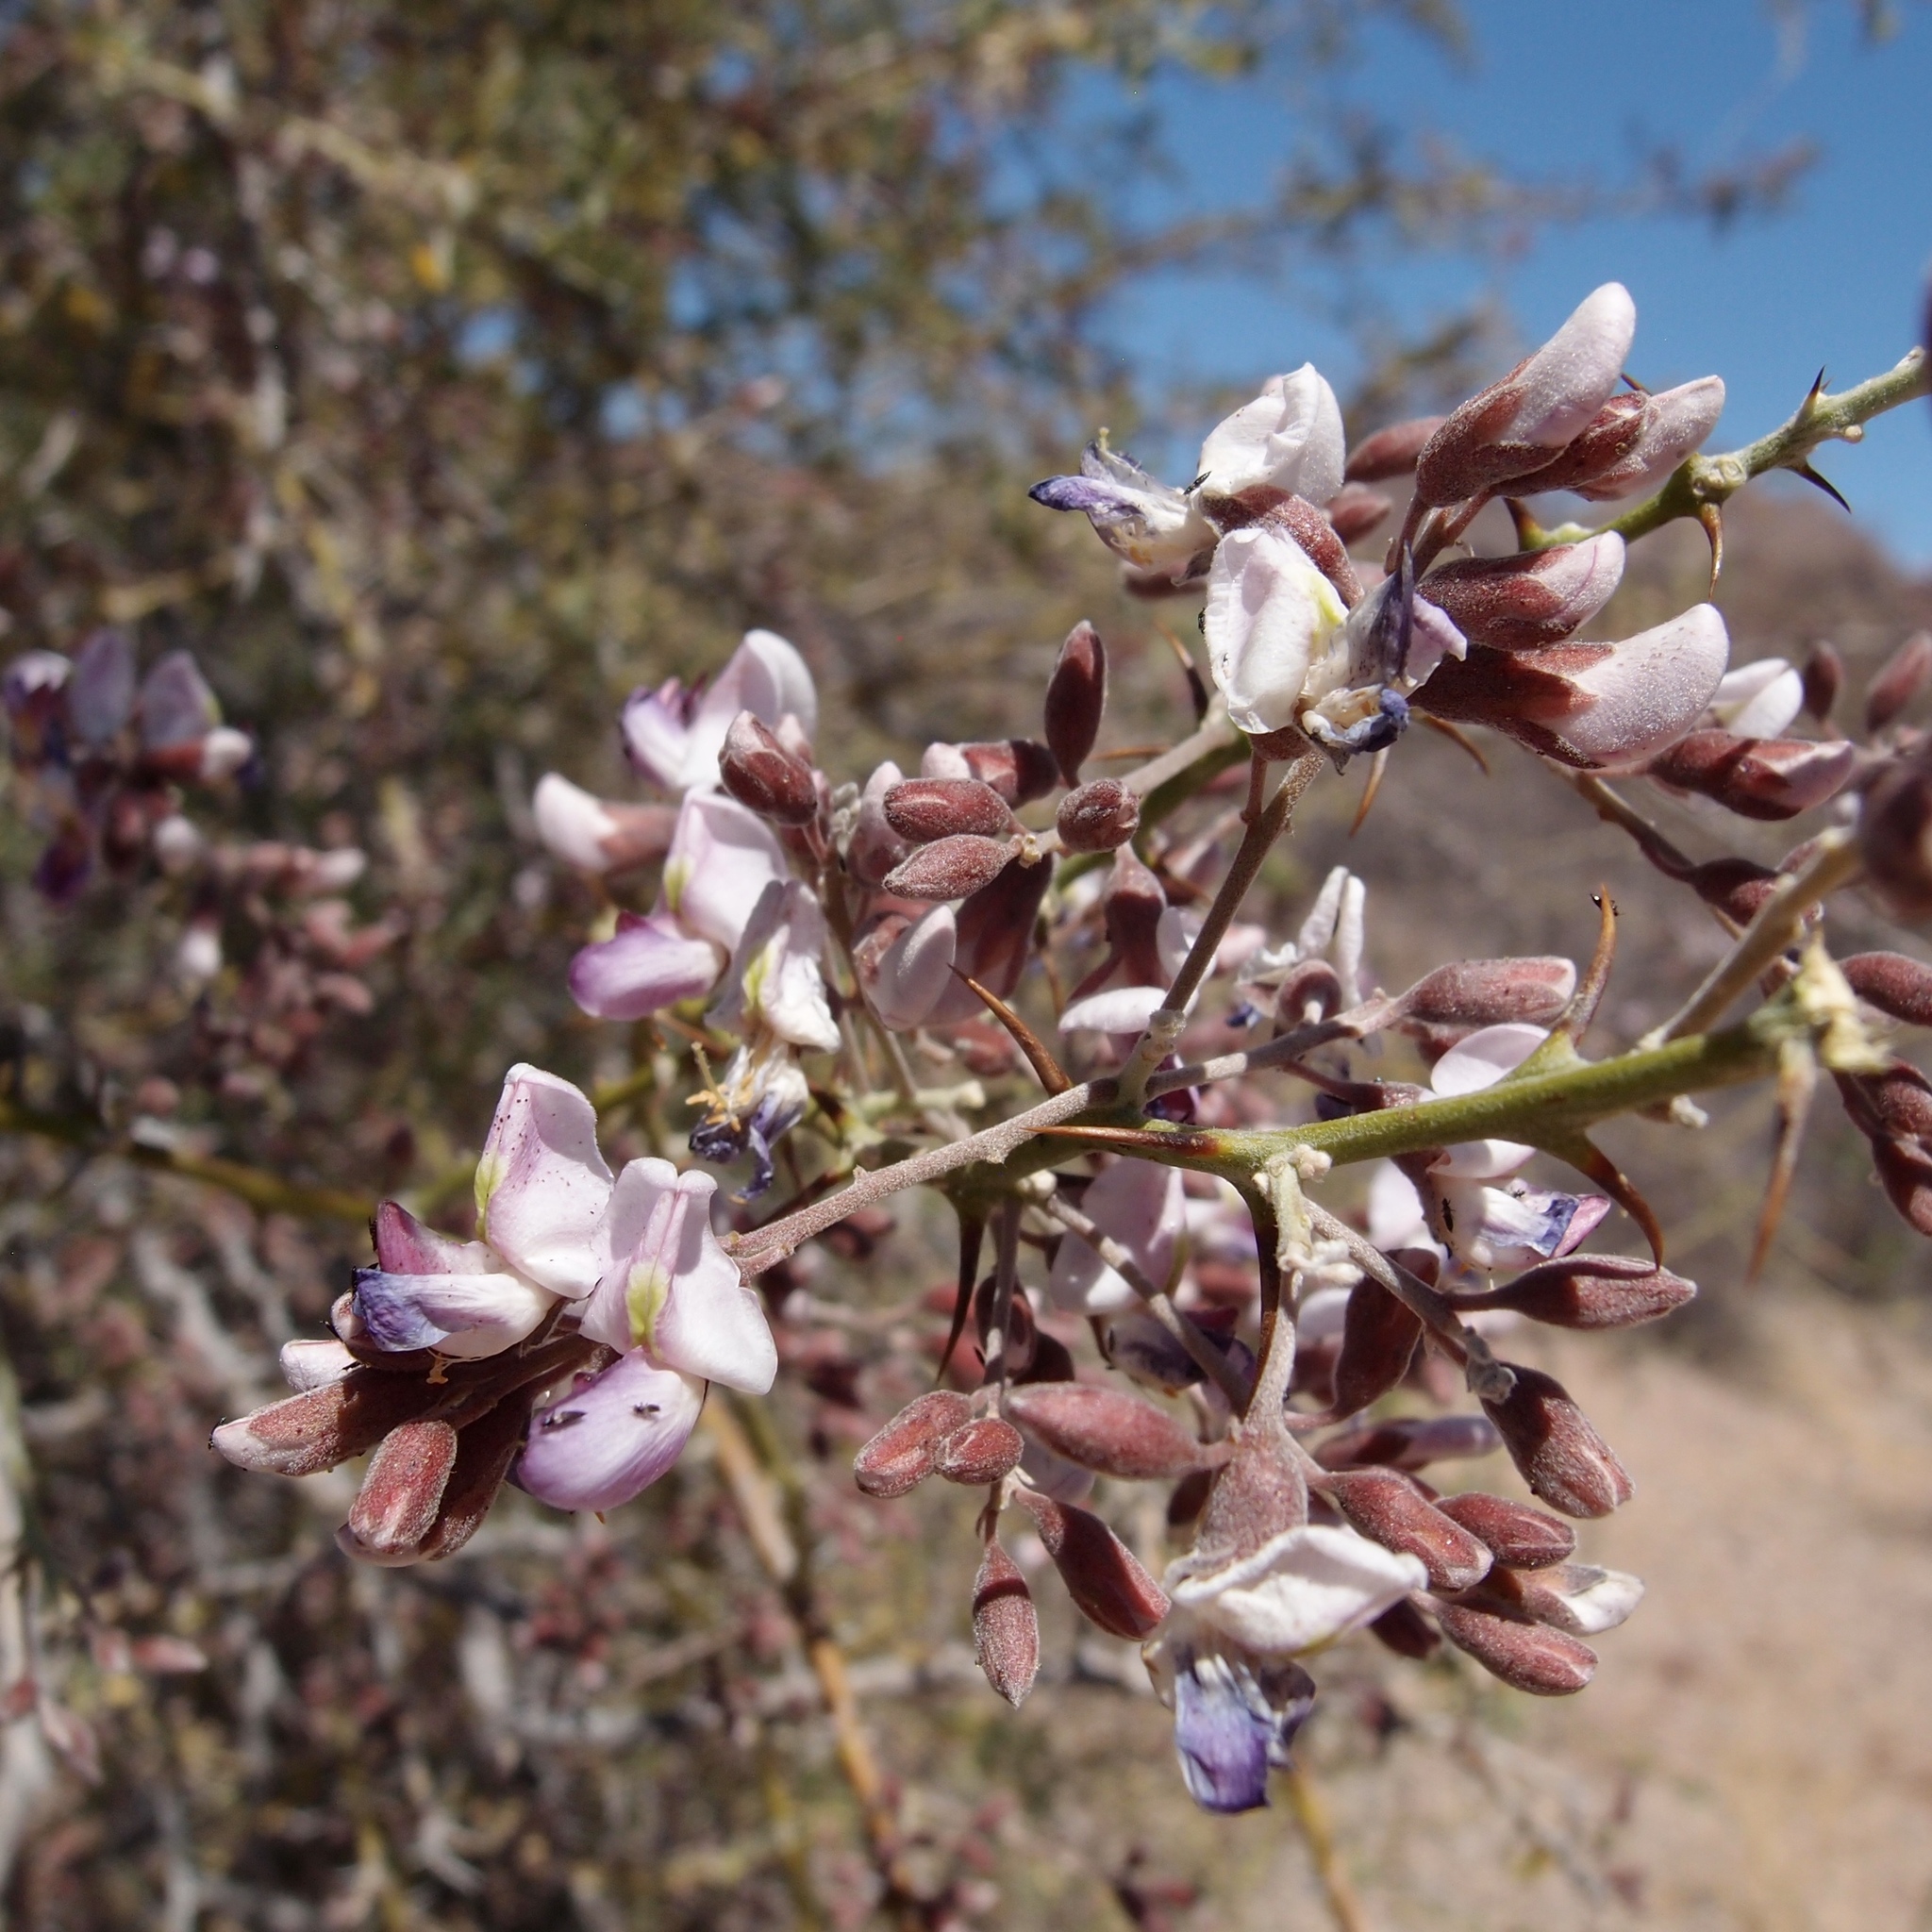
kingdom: Plantae
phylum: Tracheophyta
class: Magnoliopsida
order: Fabales
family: Fabaceae
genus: Olneya
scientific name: Olneya tesota
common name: Desert ironwood
